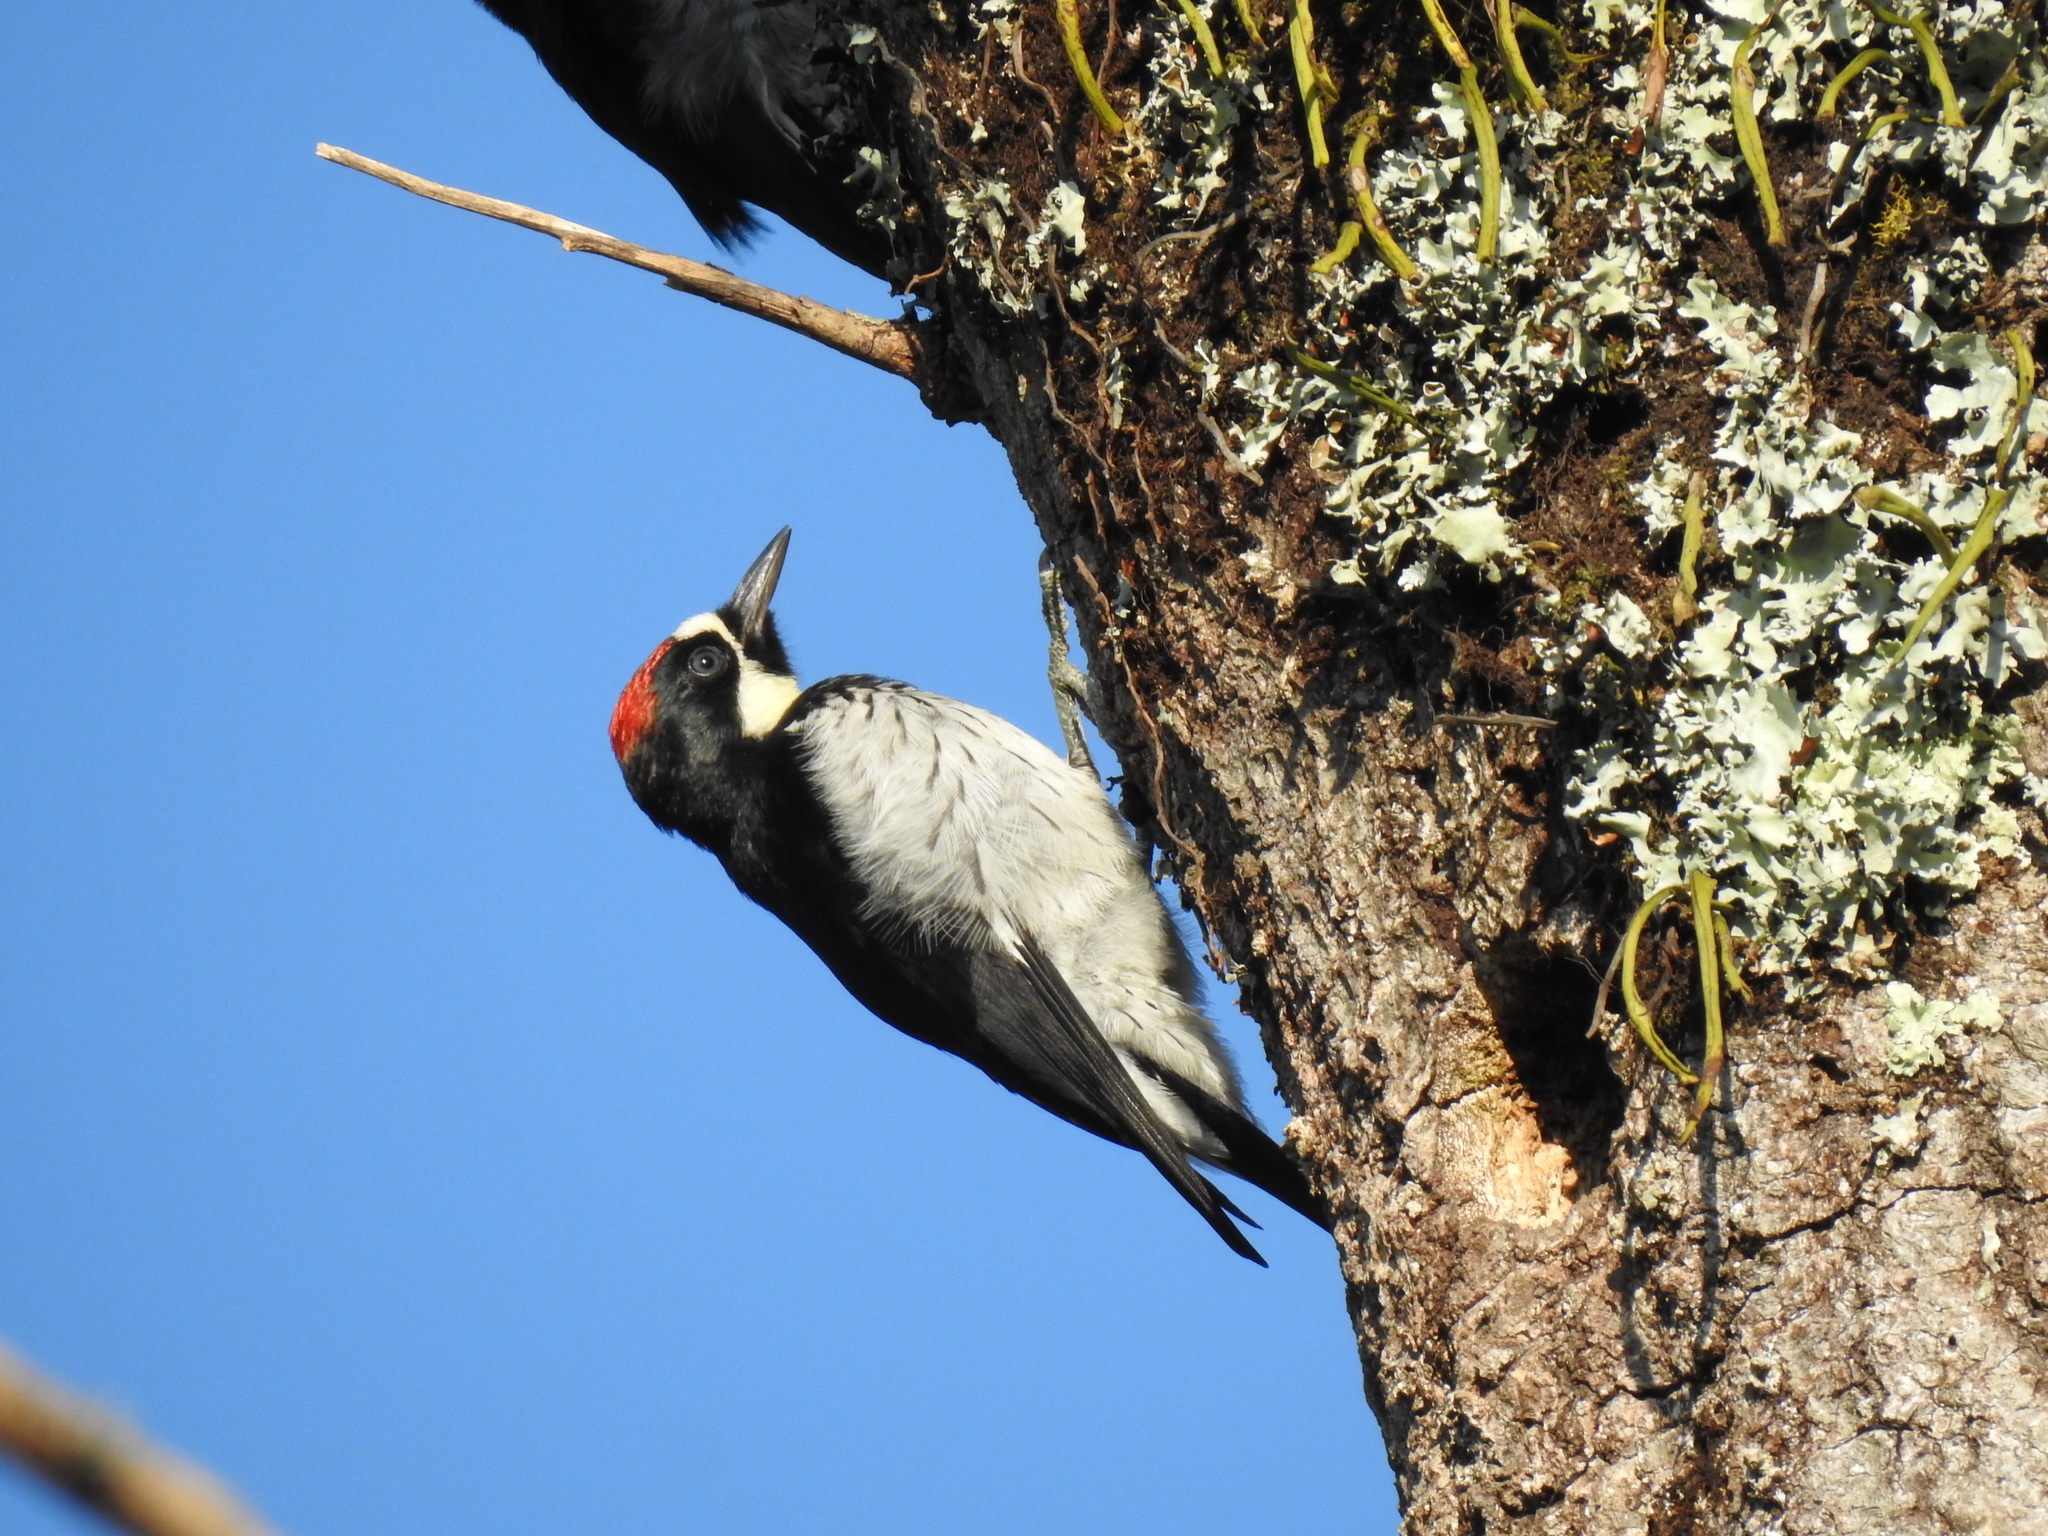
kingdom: Animalia
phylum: Chordata
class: Aves
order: Piciformes
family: Picidae
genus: Melanerpes
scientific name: Melanerpes formicivorus
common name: Acorn woodpecker
